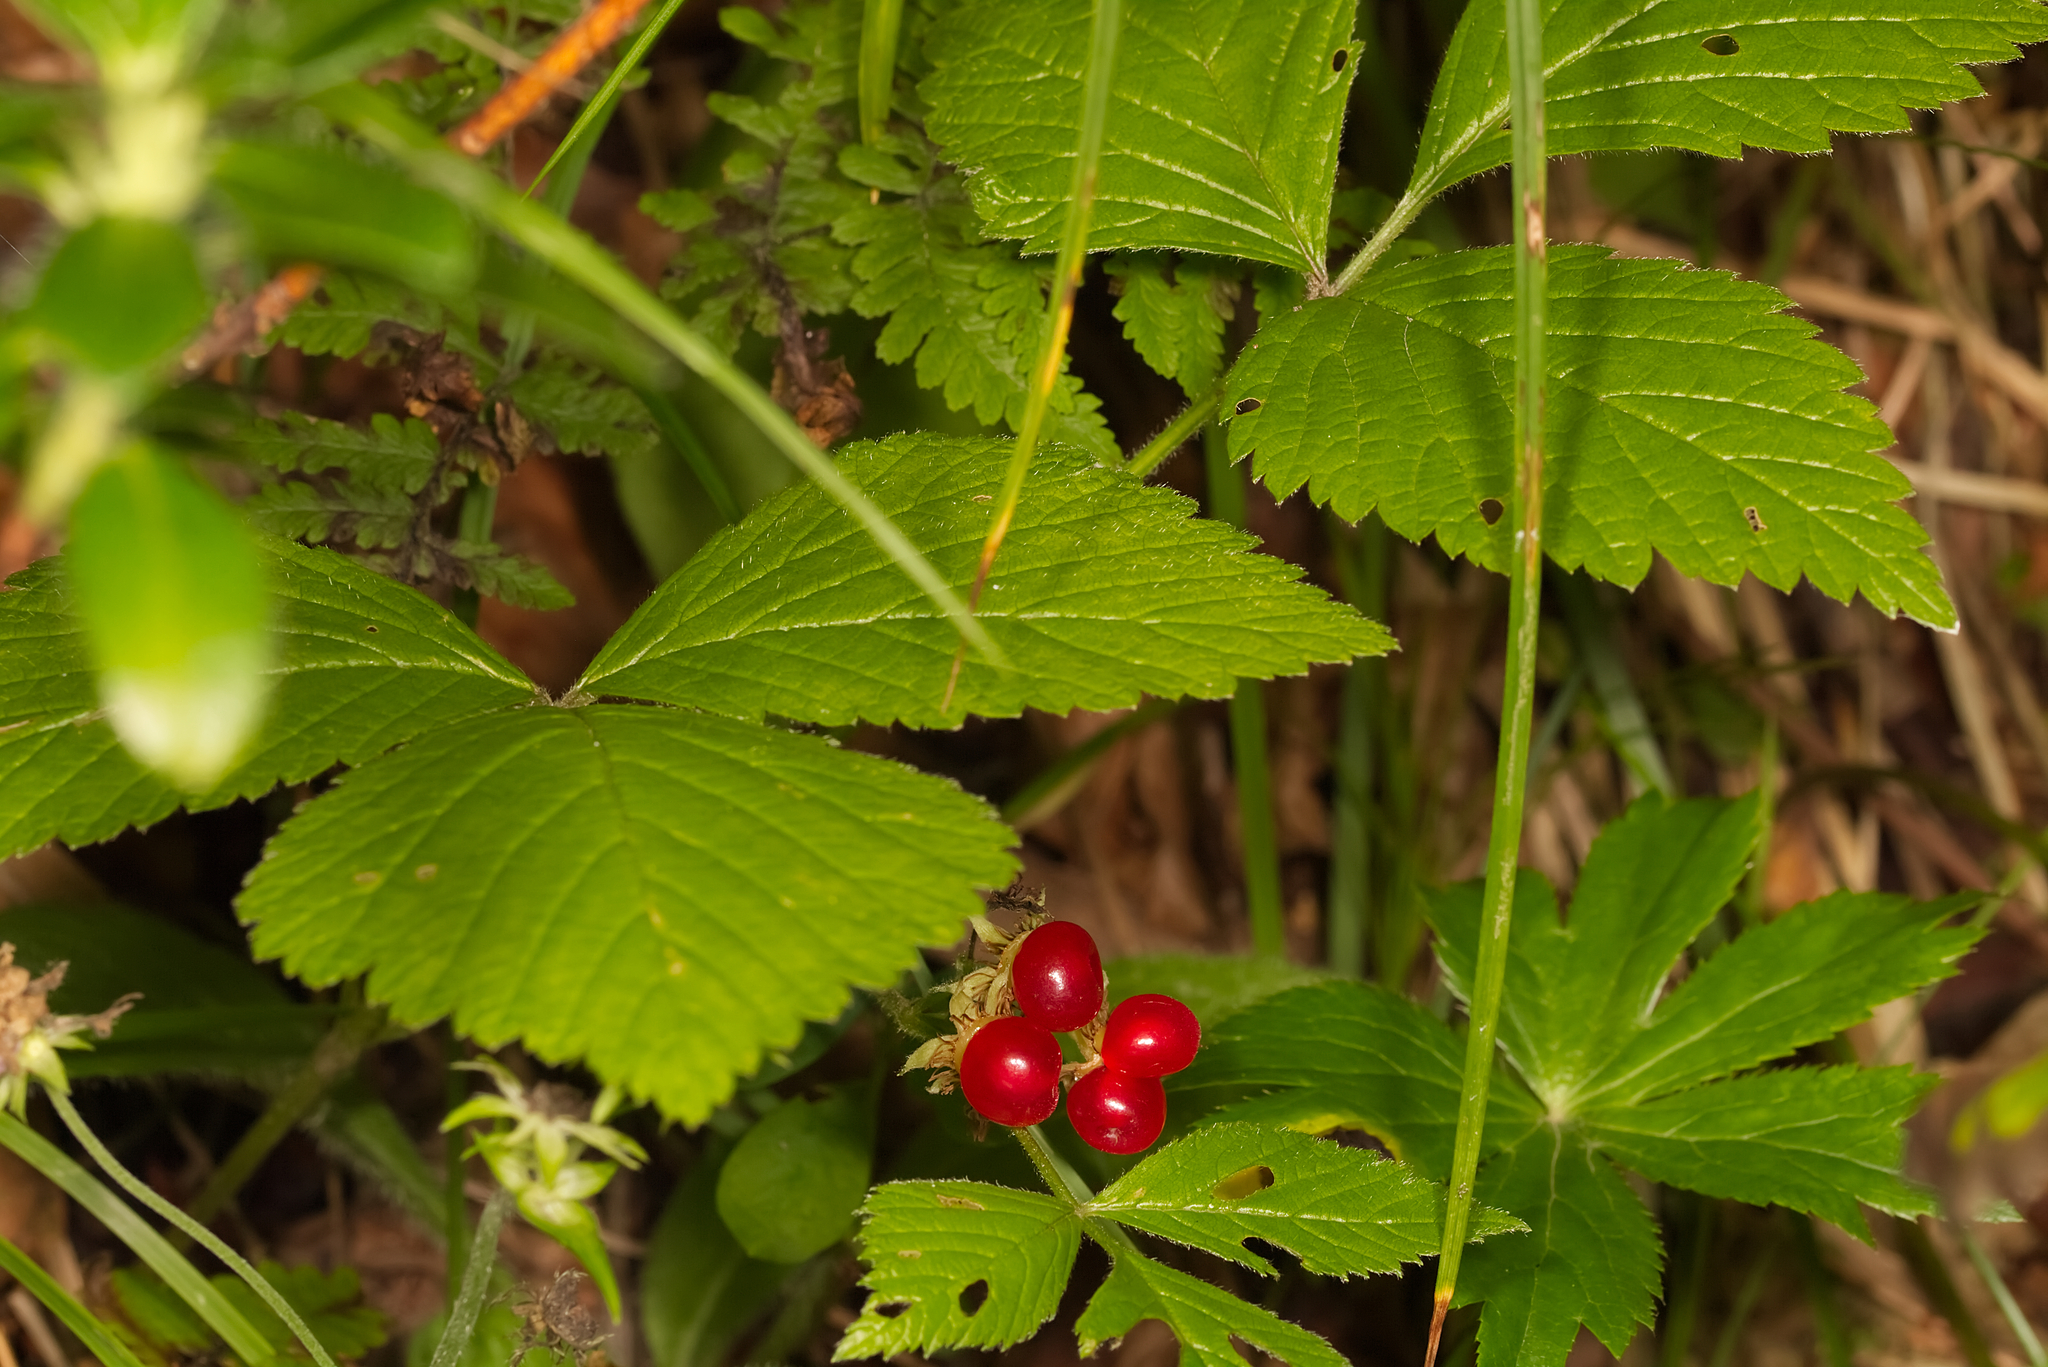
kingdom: Plantae
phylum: Tracheophyta
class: Magnoliopsida
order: Rosales
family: Rosaceae
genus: Rubus
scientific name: Rubus saxatilis
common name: Stone bramble
